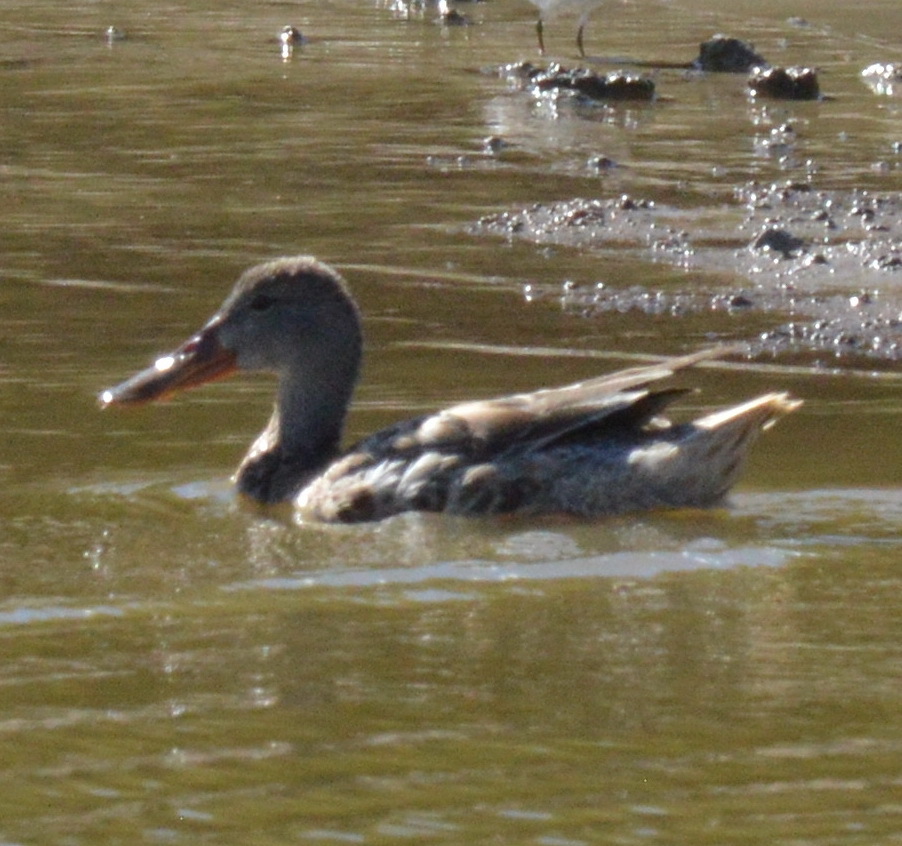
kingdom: Animalia
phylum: Chordata
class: Aves
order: Anseriformes
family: Anatidae
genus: Spatula
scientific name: Spatula clypeata
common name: Northern shoveler
